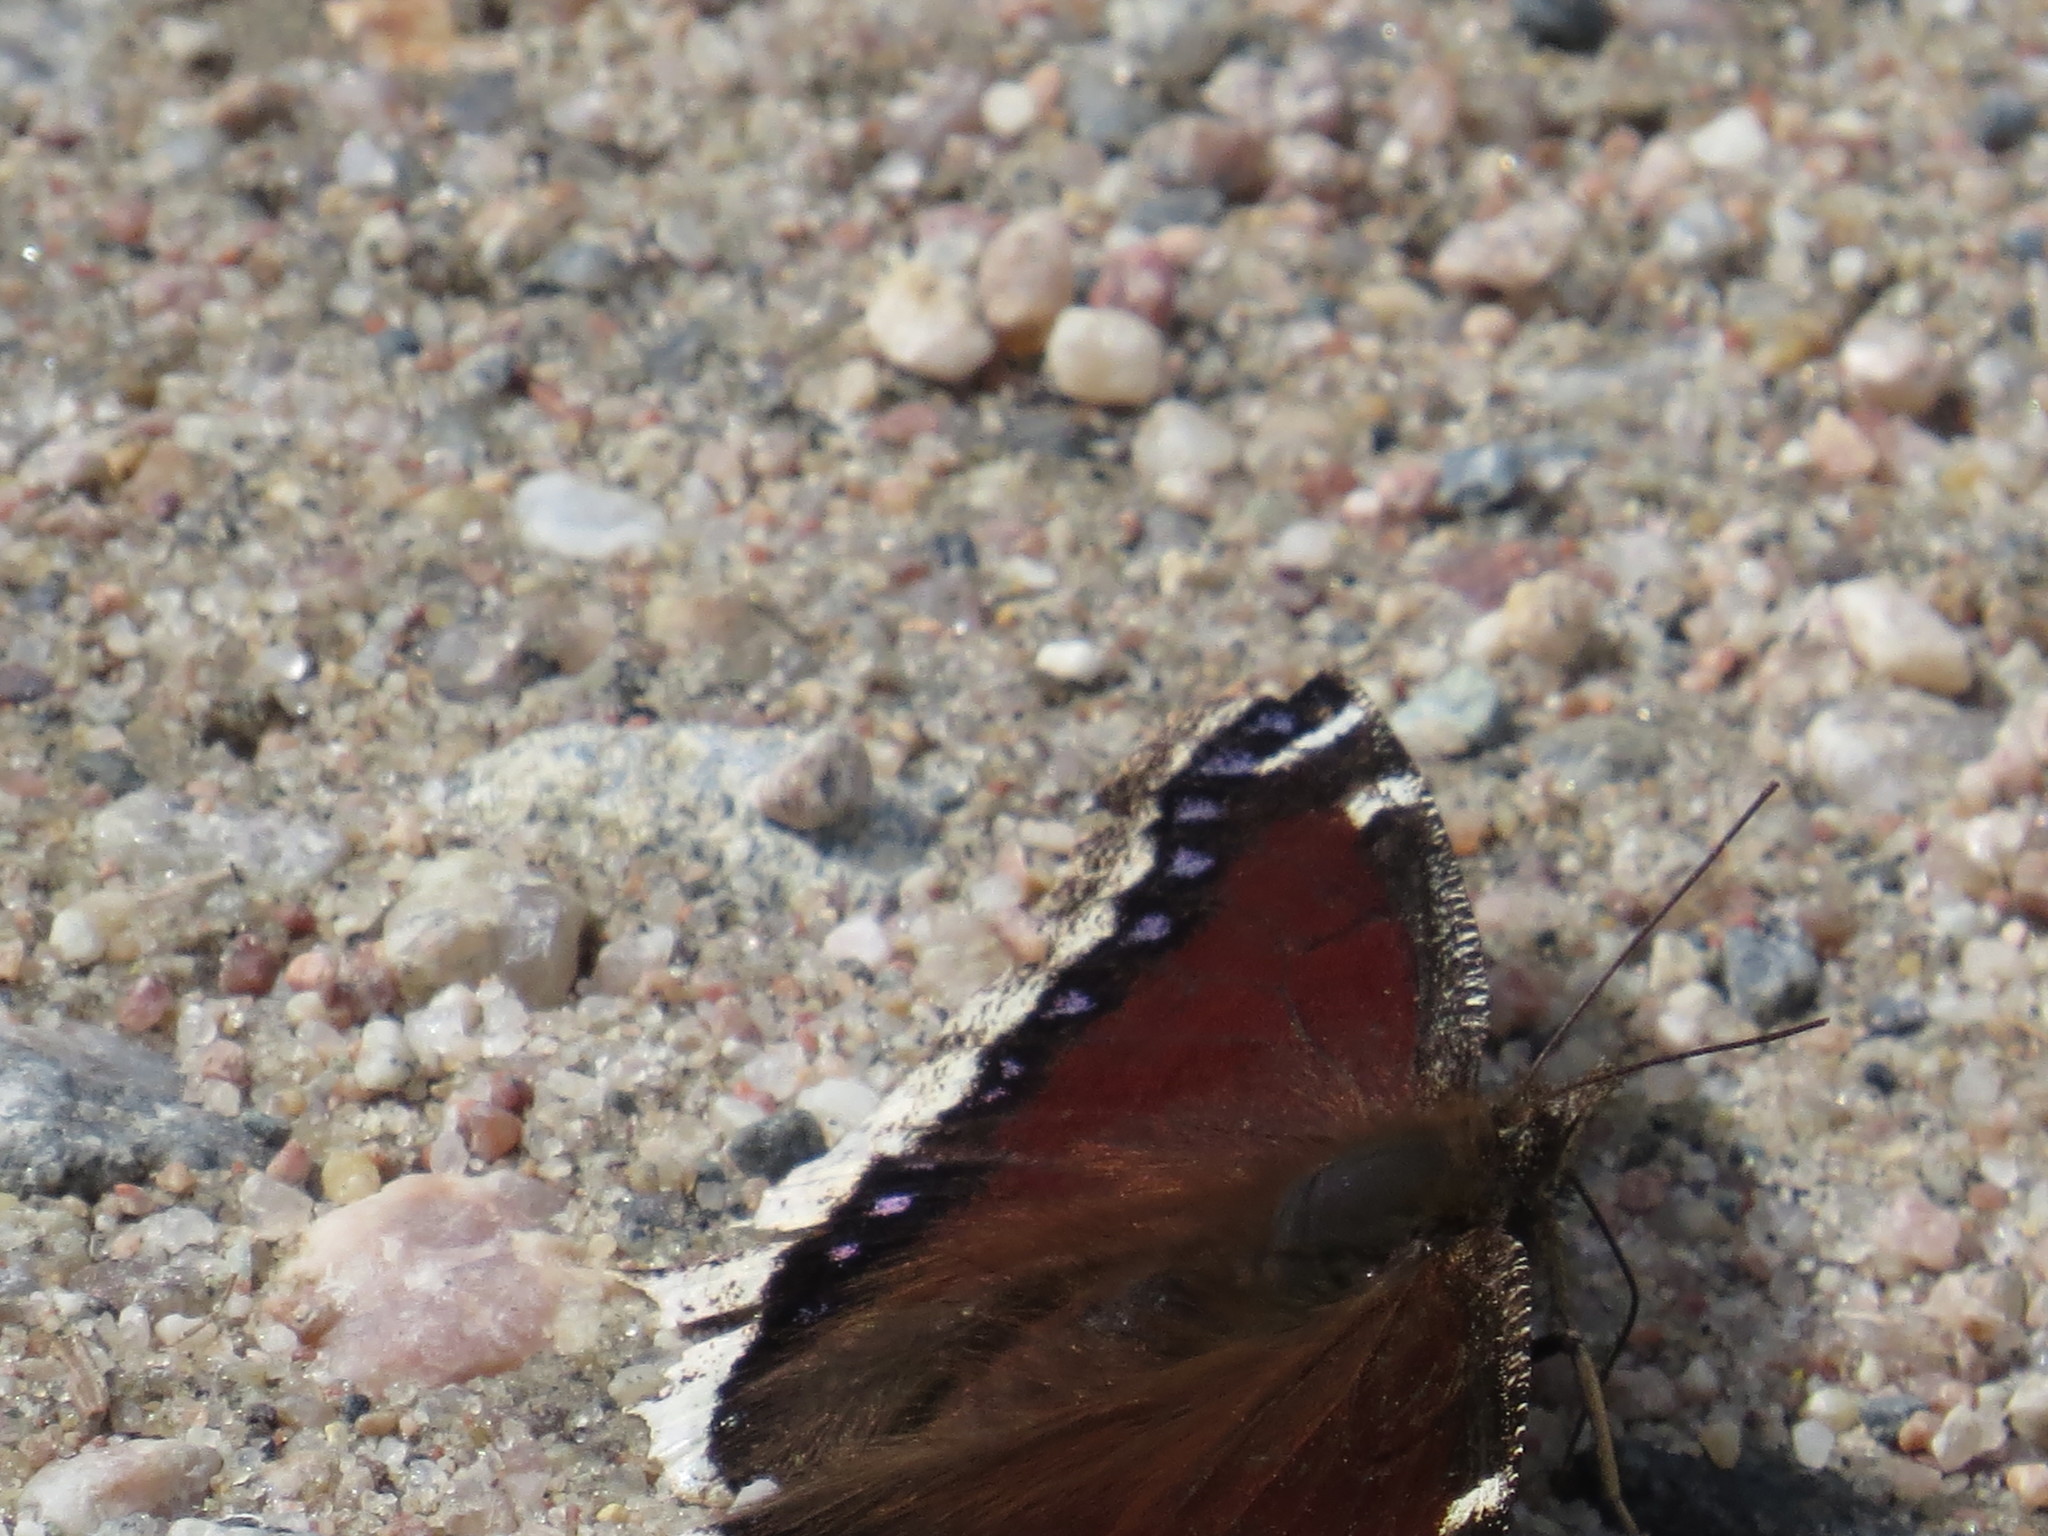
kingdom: Animalia
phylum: Arthropoda
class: Insecta
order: Lepidoptera
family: Nymphalidae
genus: Nymphalis
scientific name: Nymphalis antiopa
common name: Camberwell beauty
